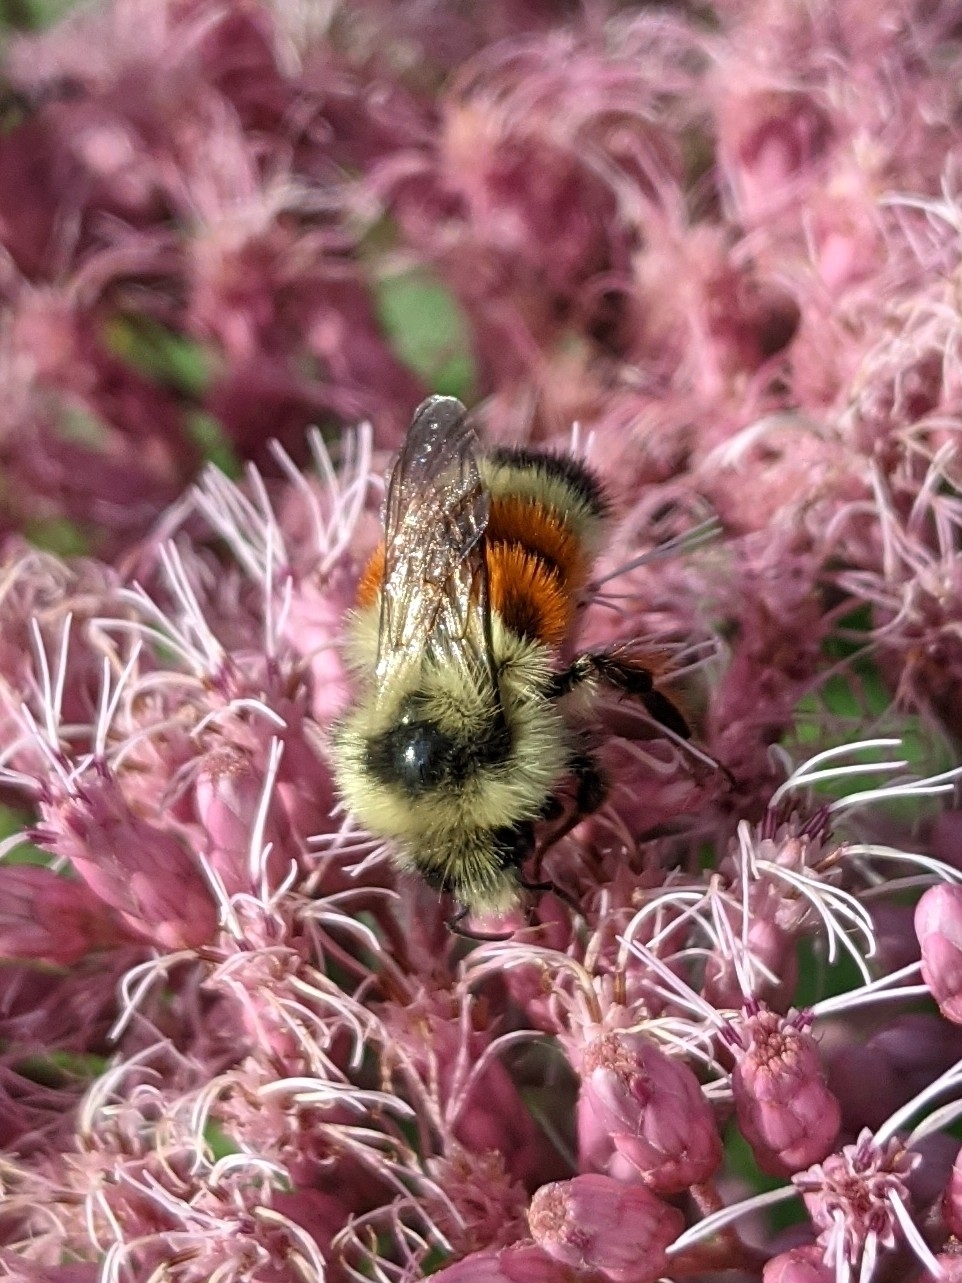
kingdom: Animalia
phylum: Arthropoda
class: Insecta
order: Hymenoptera
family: Apidae
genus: Bombus
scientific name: Bombus ternarius
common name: Tri-colored bumble bee
